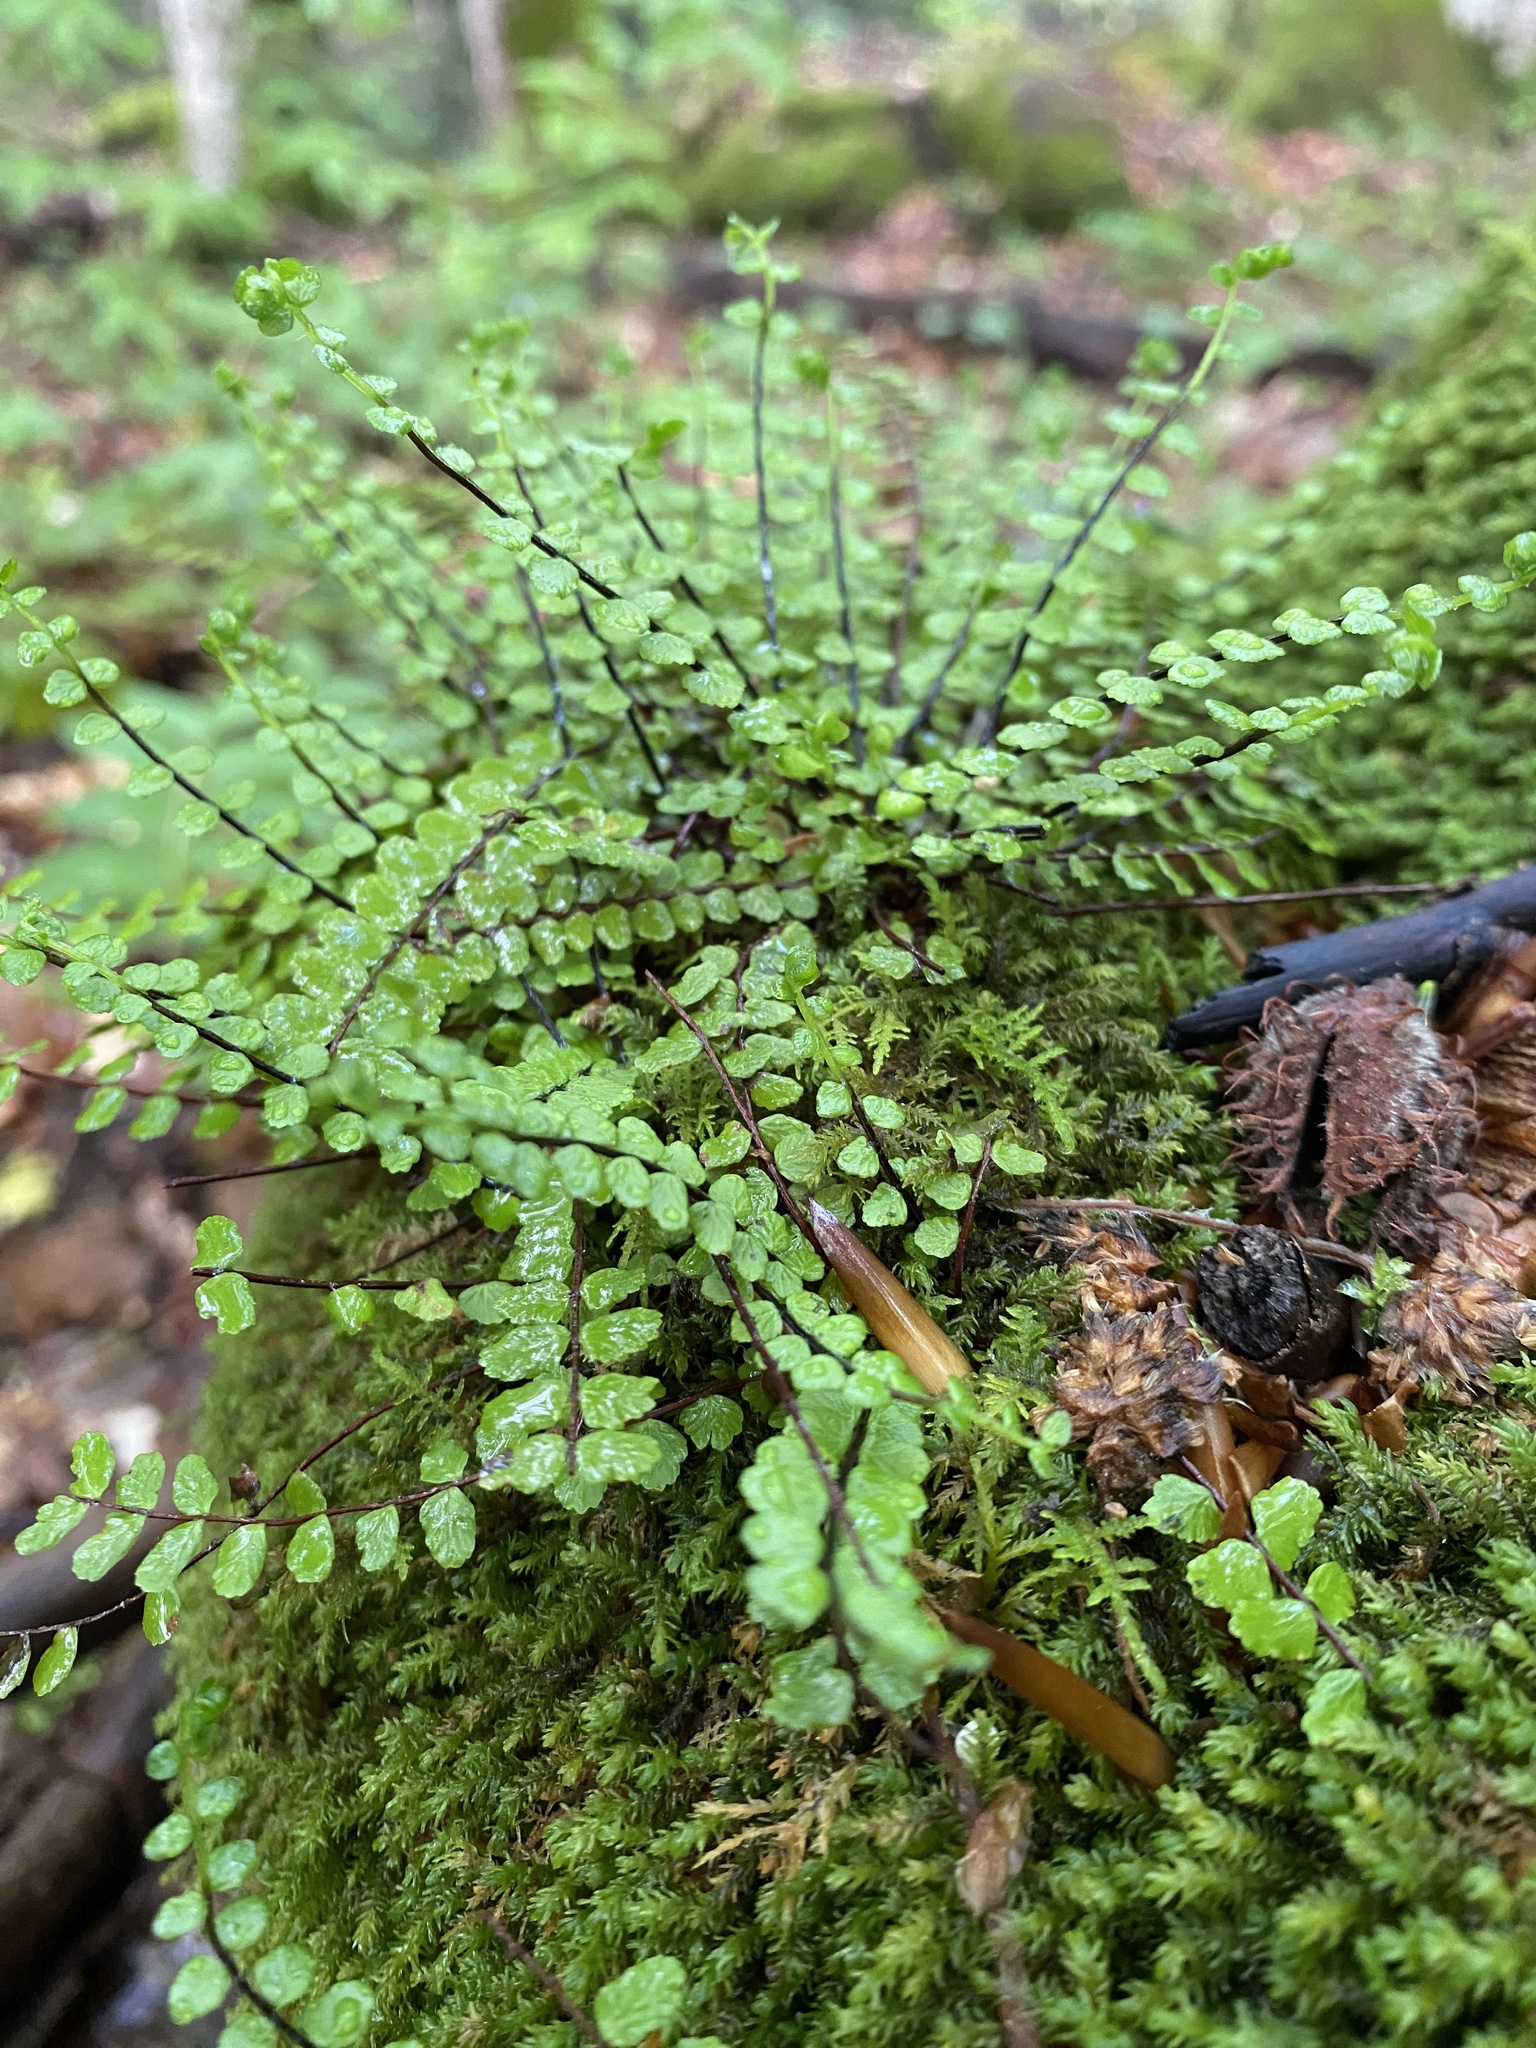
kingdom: Plantae
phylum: Tracheophyta
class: Polypodiopsida
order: Polypodiales
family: Aspleniaceae
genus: Asplenium
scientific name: Asplenium trichomanes
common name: Maidenhair spleenwort
